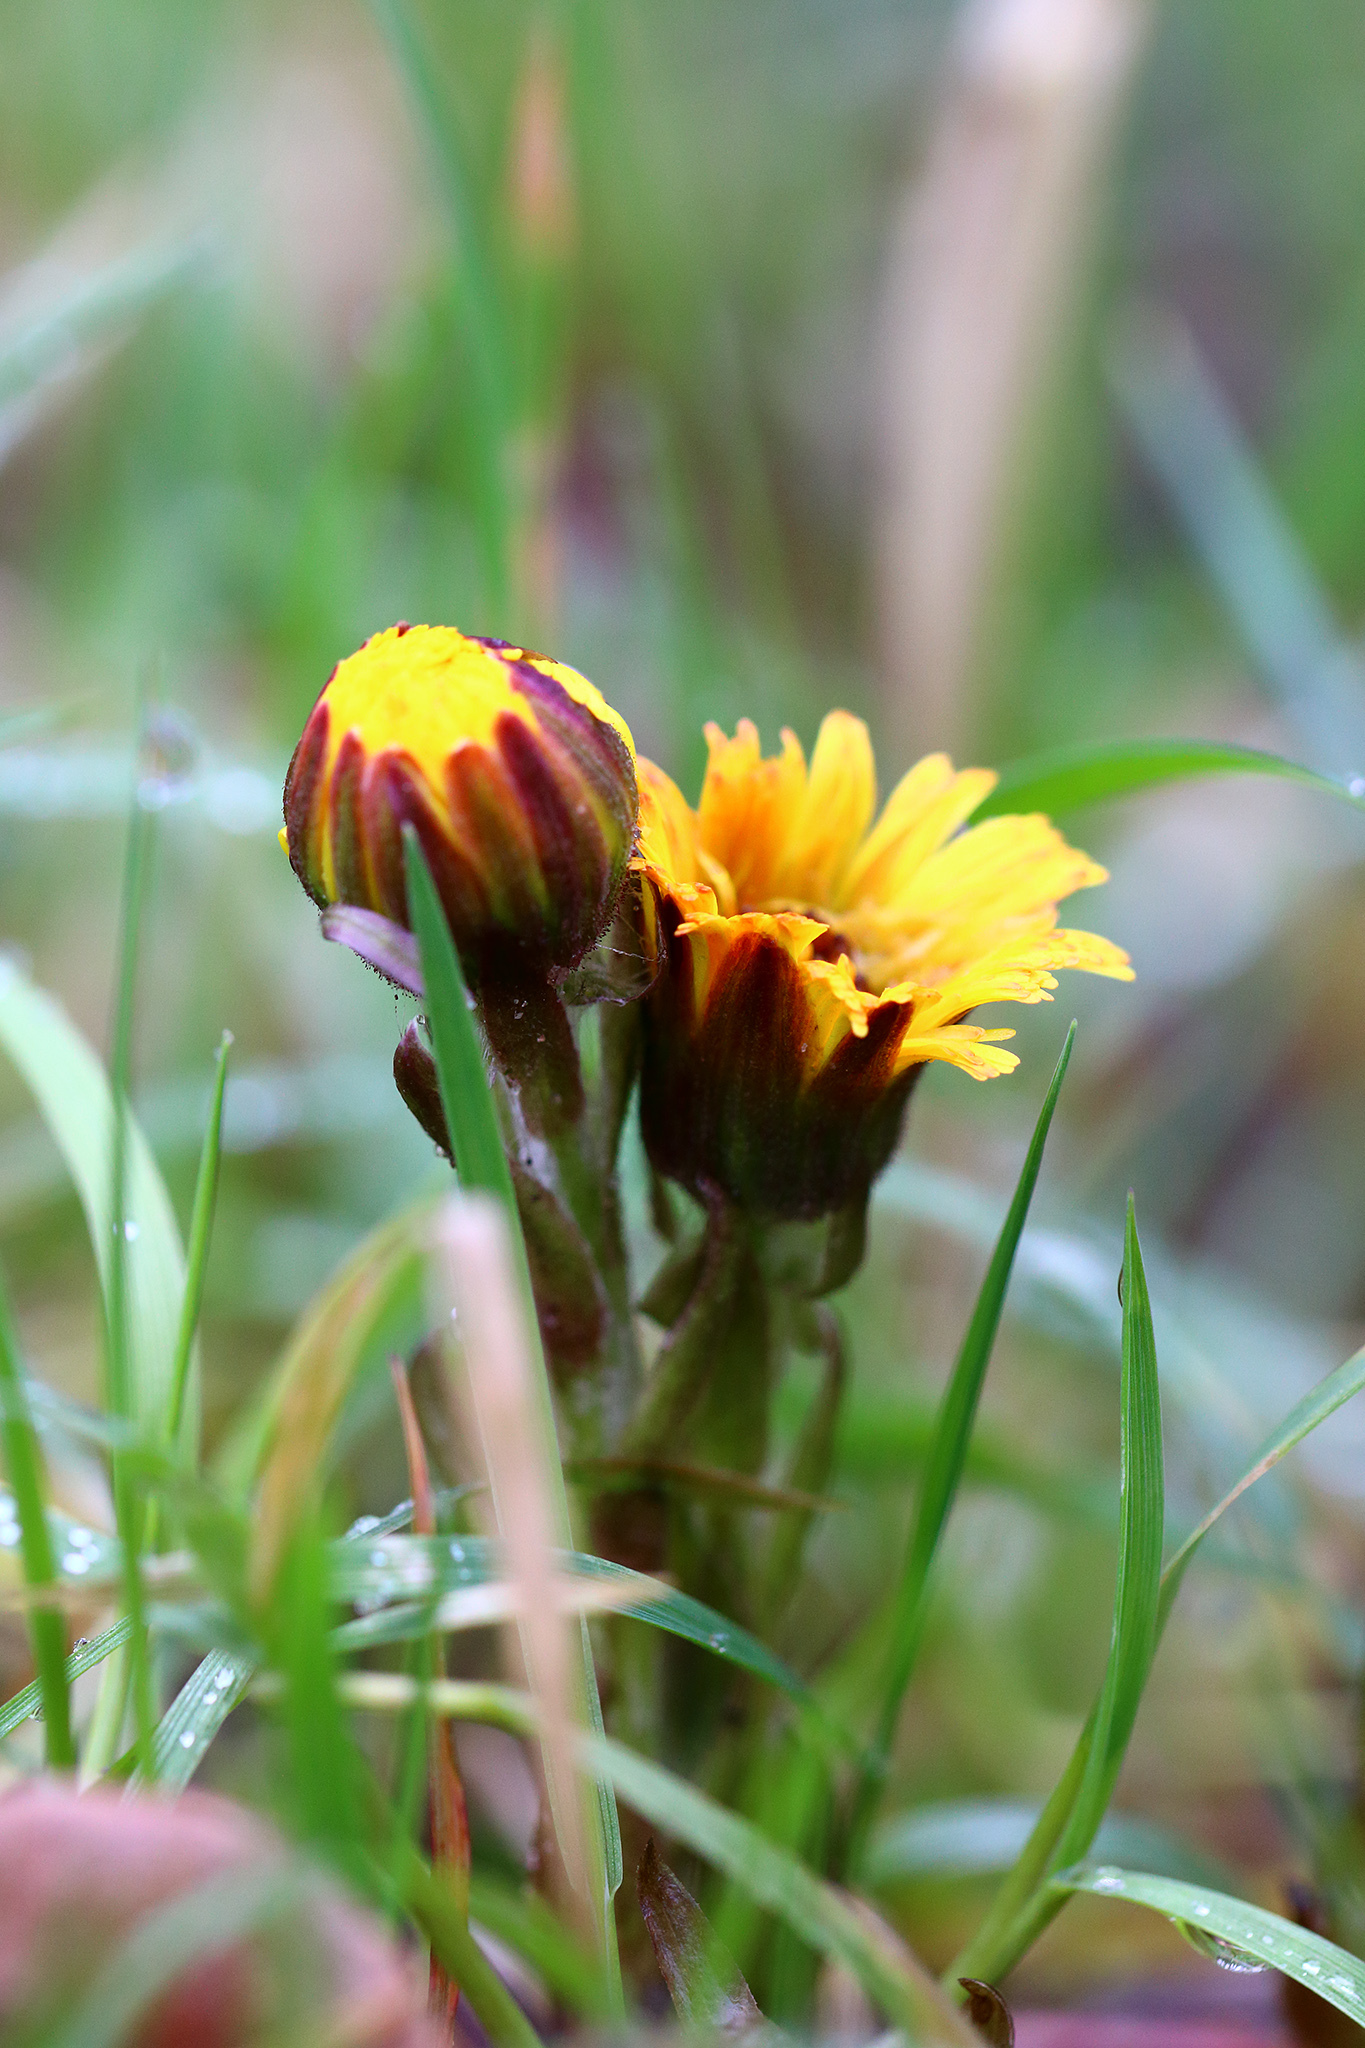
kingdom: Plantae
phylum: Tracheophyta
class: Magnoliopsida
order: Asterales
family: Asteraceae
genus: Tussilago
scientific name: Tussilago farfara
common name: Coltsfoot
